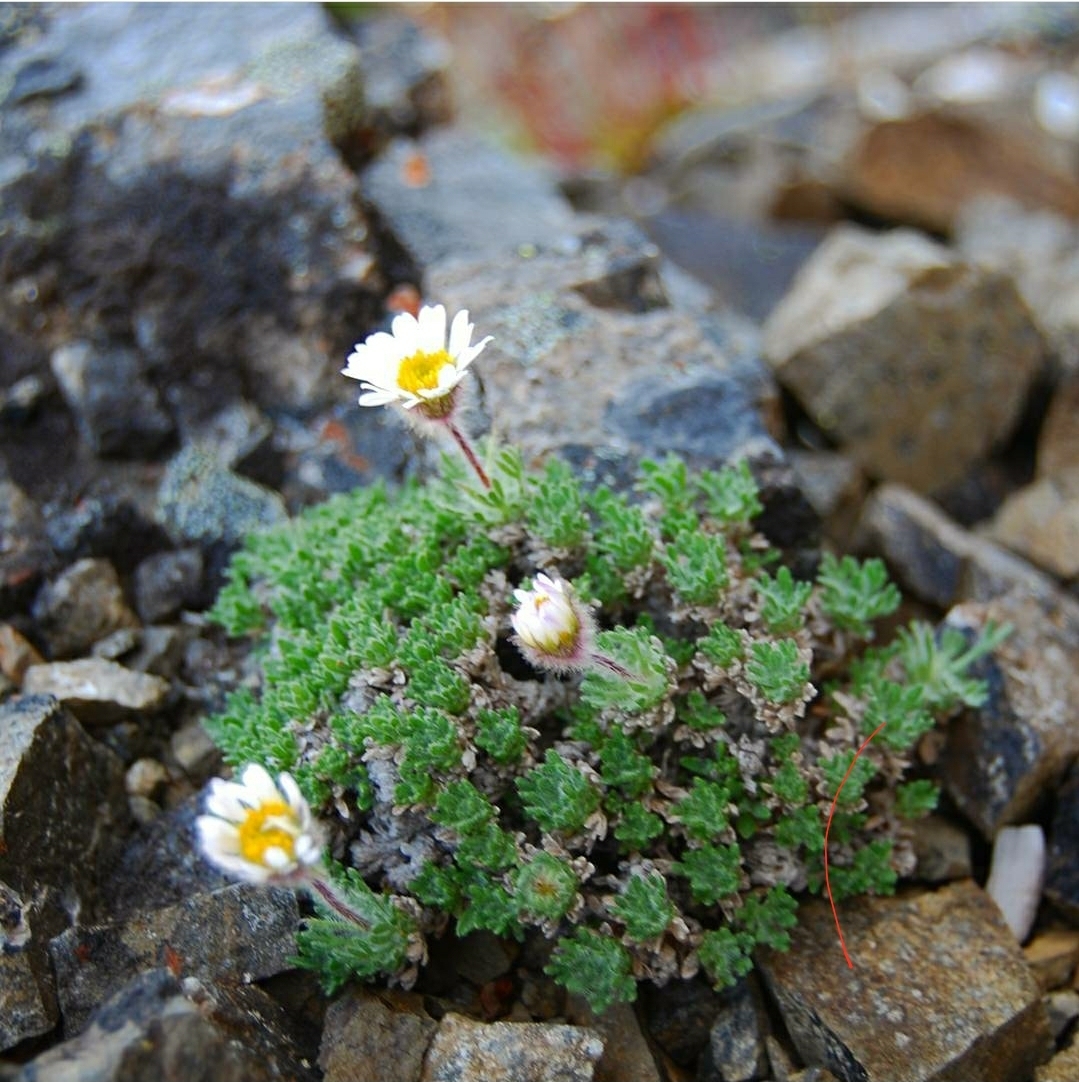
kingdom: Plantae
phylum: Tracheophyta
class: Magnoliopsida
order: Asterales
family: Asteraceae
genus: Erigeron
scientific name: Erigeron salishii
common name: Salish daisy
